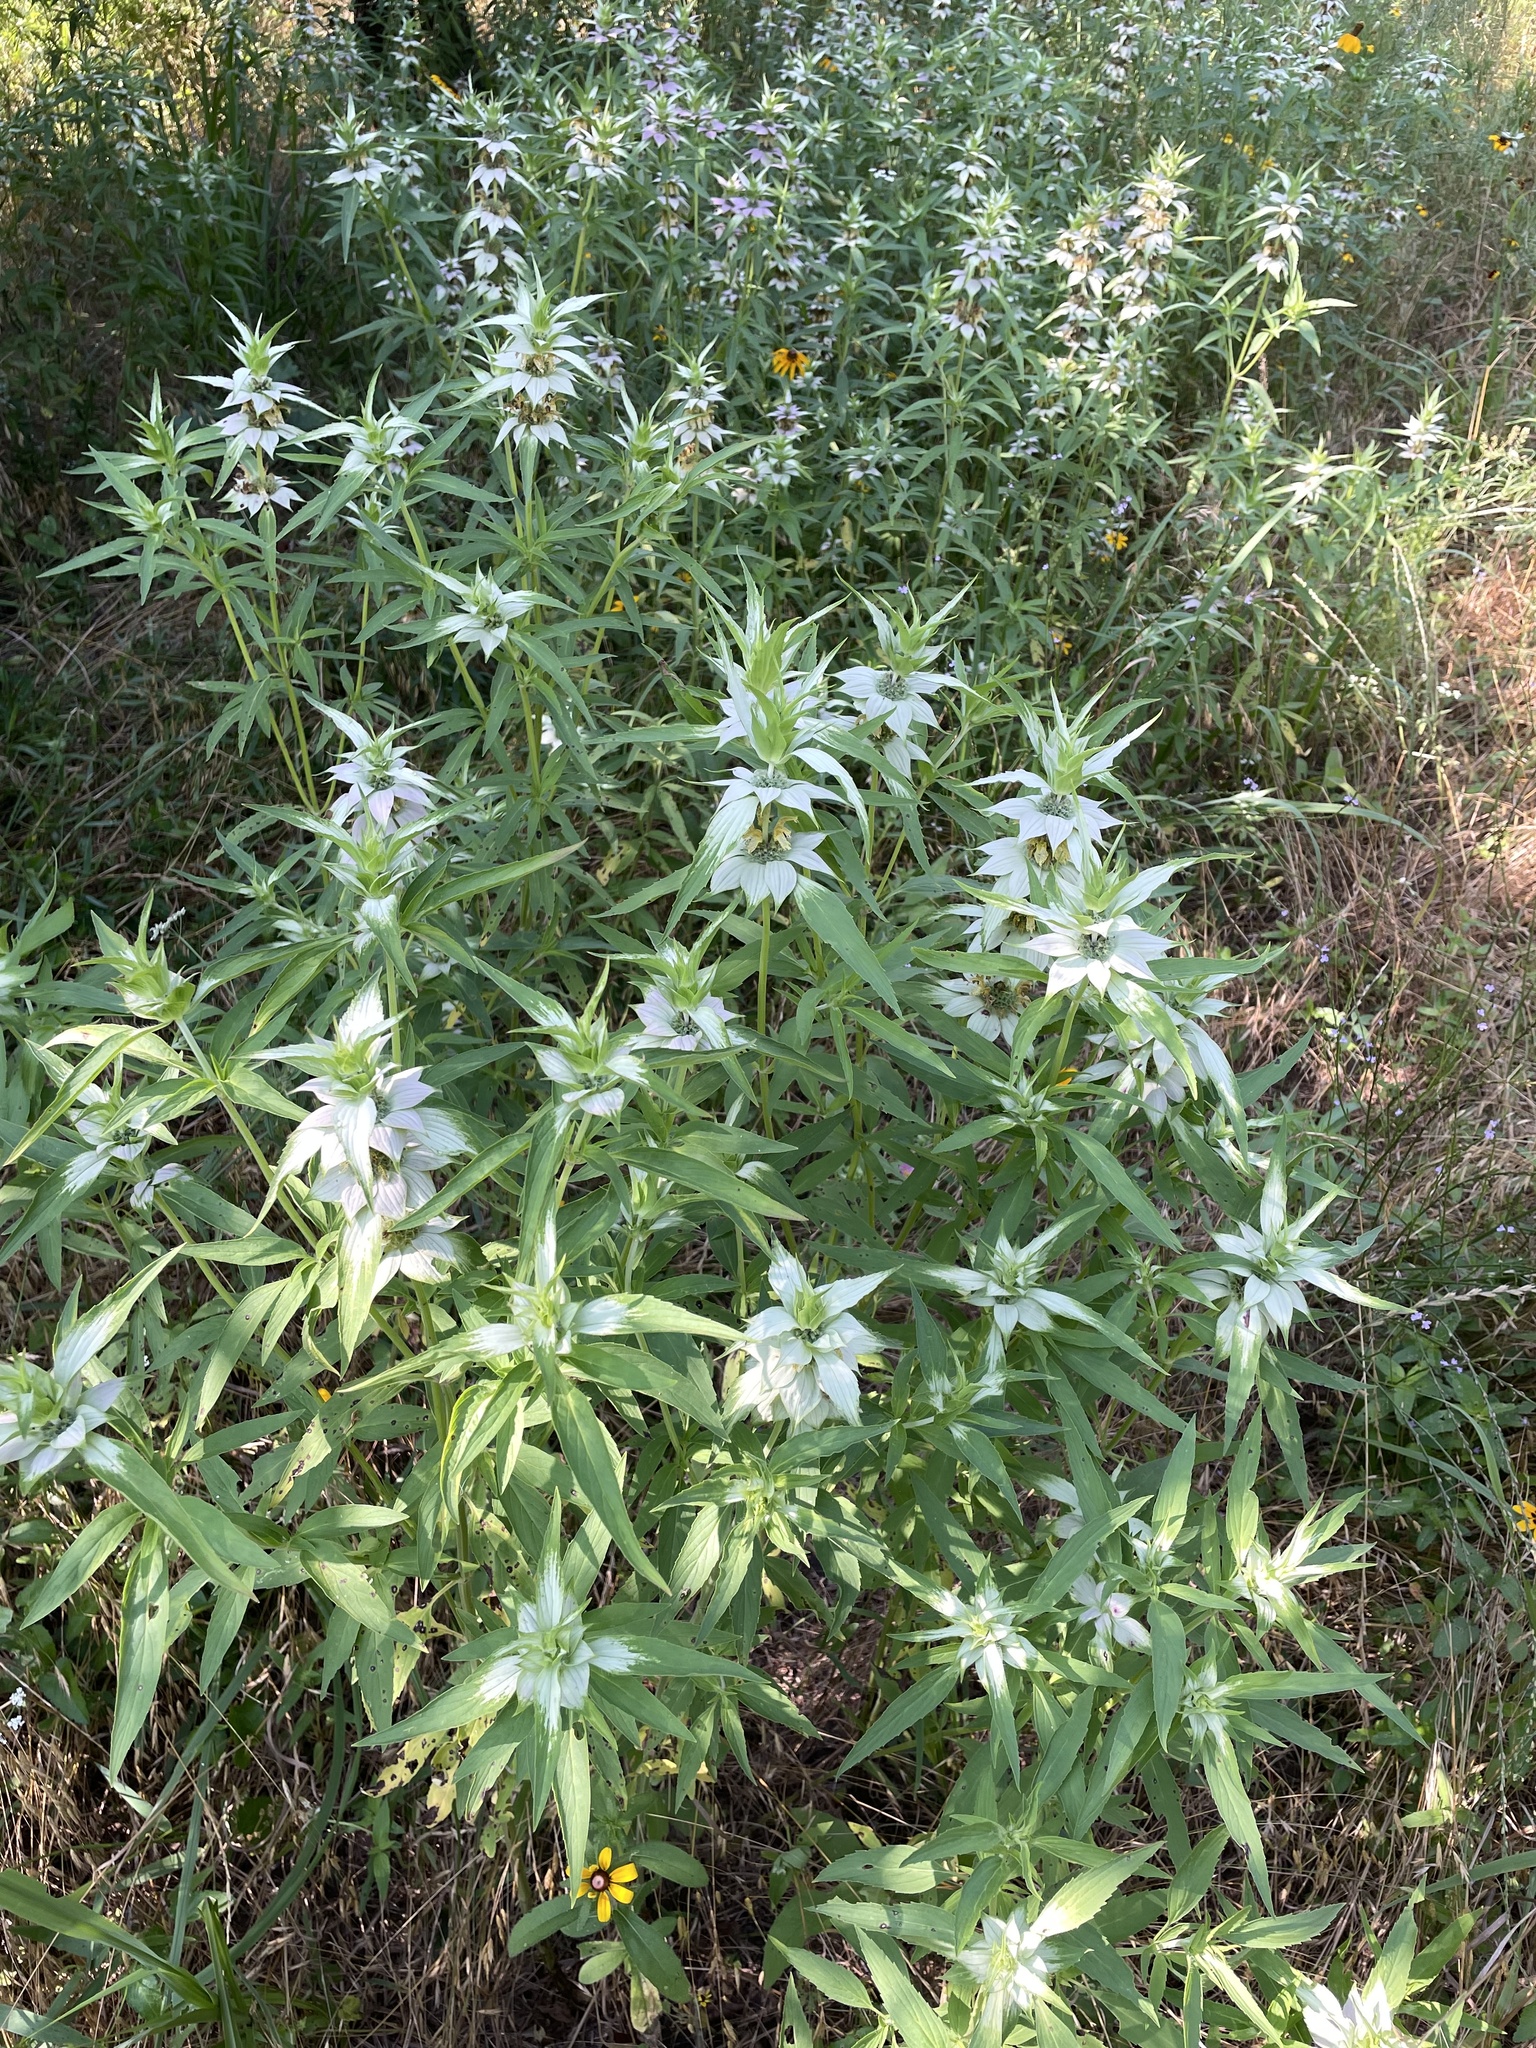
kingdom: Plantae
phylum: Tracheophyta
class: Magnoliopsida
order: Lamiales
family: Lamiaceae
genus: Monarda
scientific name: Monarda punctata
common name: Dotted monarda
